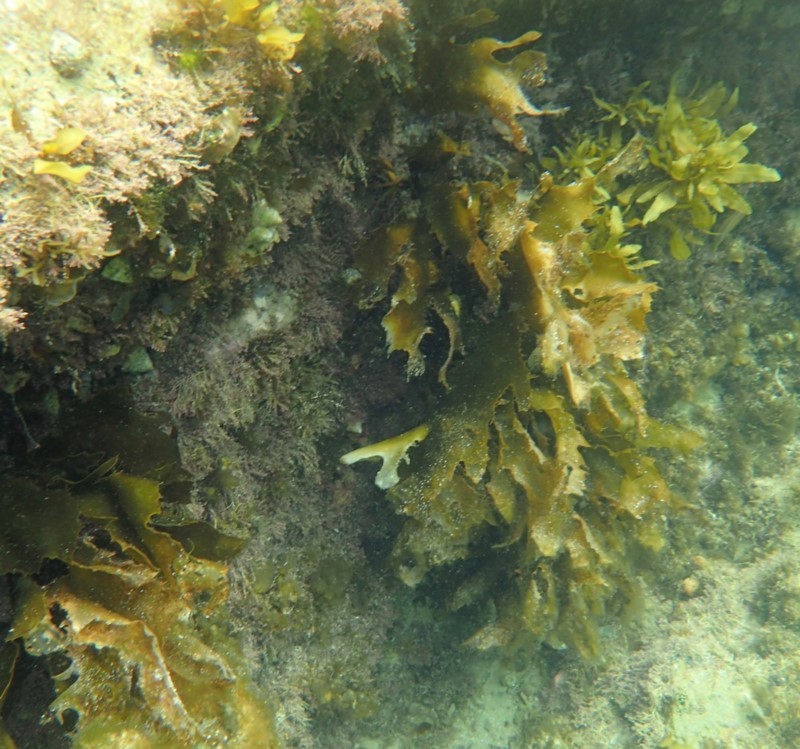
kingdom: Chromista
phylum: Ochrophyta
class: Phaeophyceae
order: Laminariales
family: Lessoniaceae
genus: Ecklonia
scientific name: Ecklonia radiata
